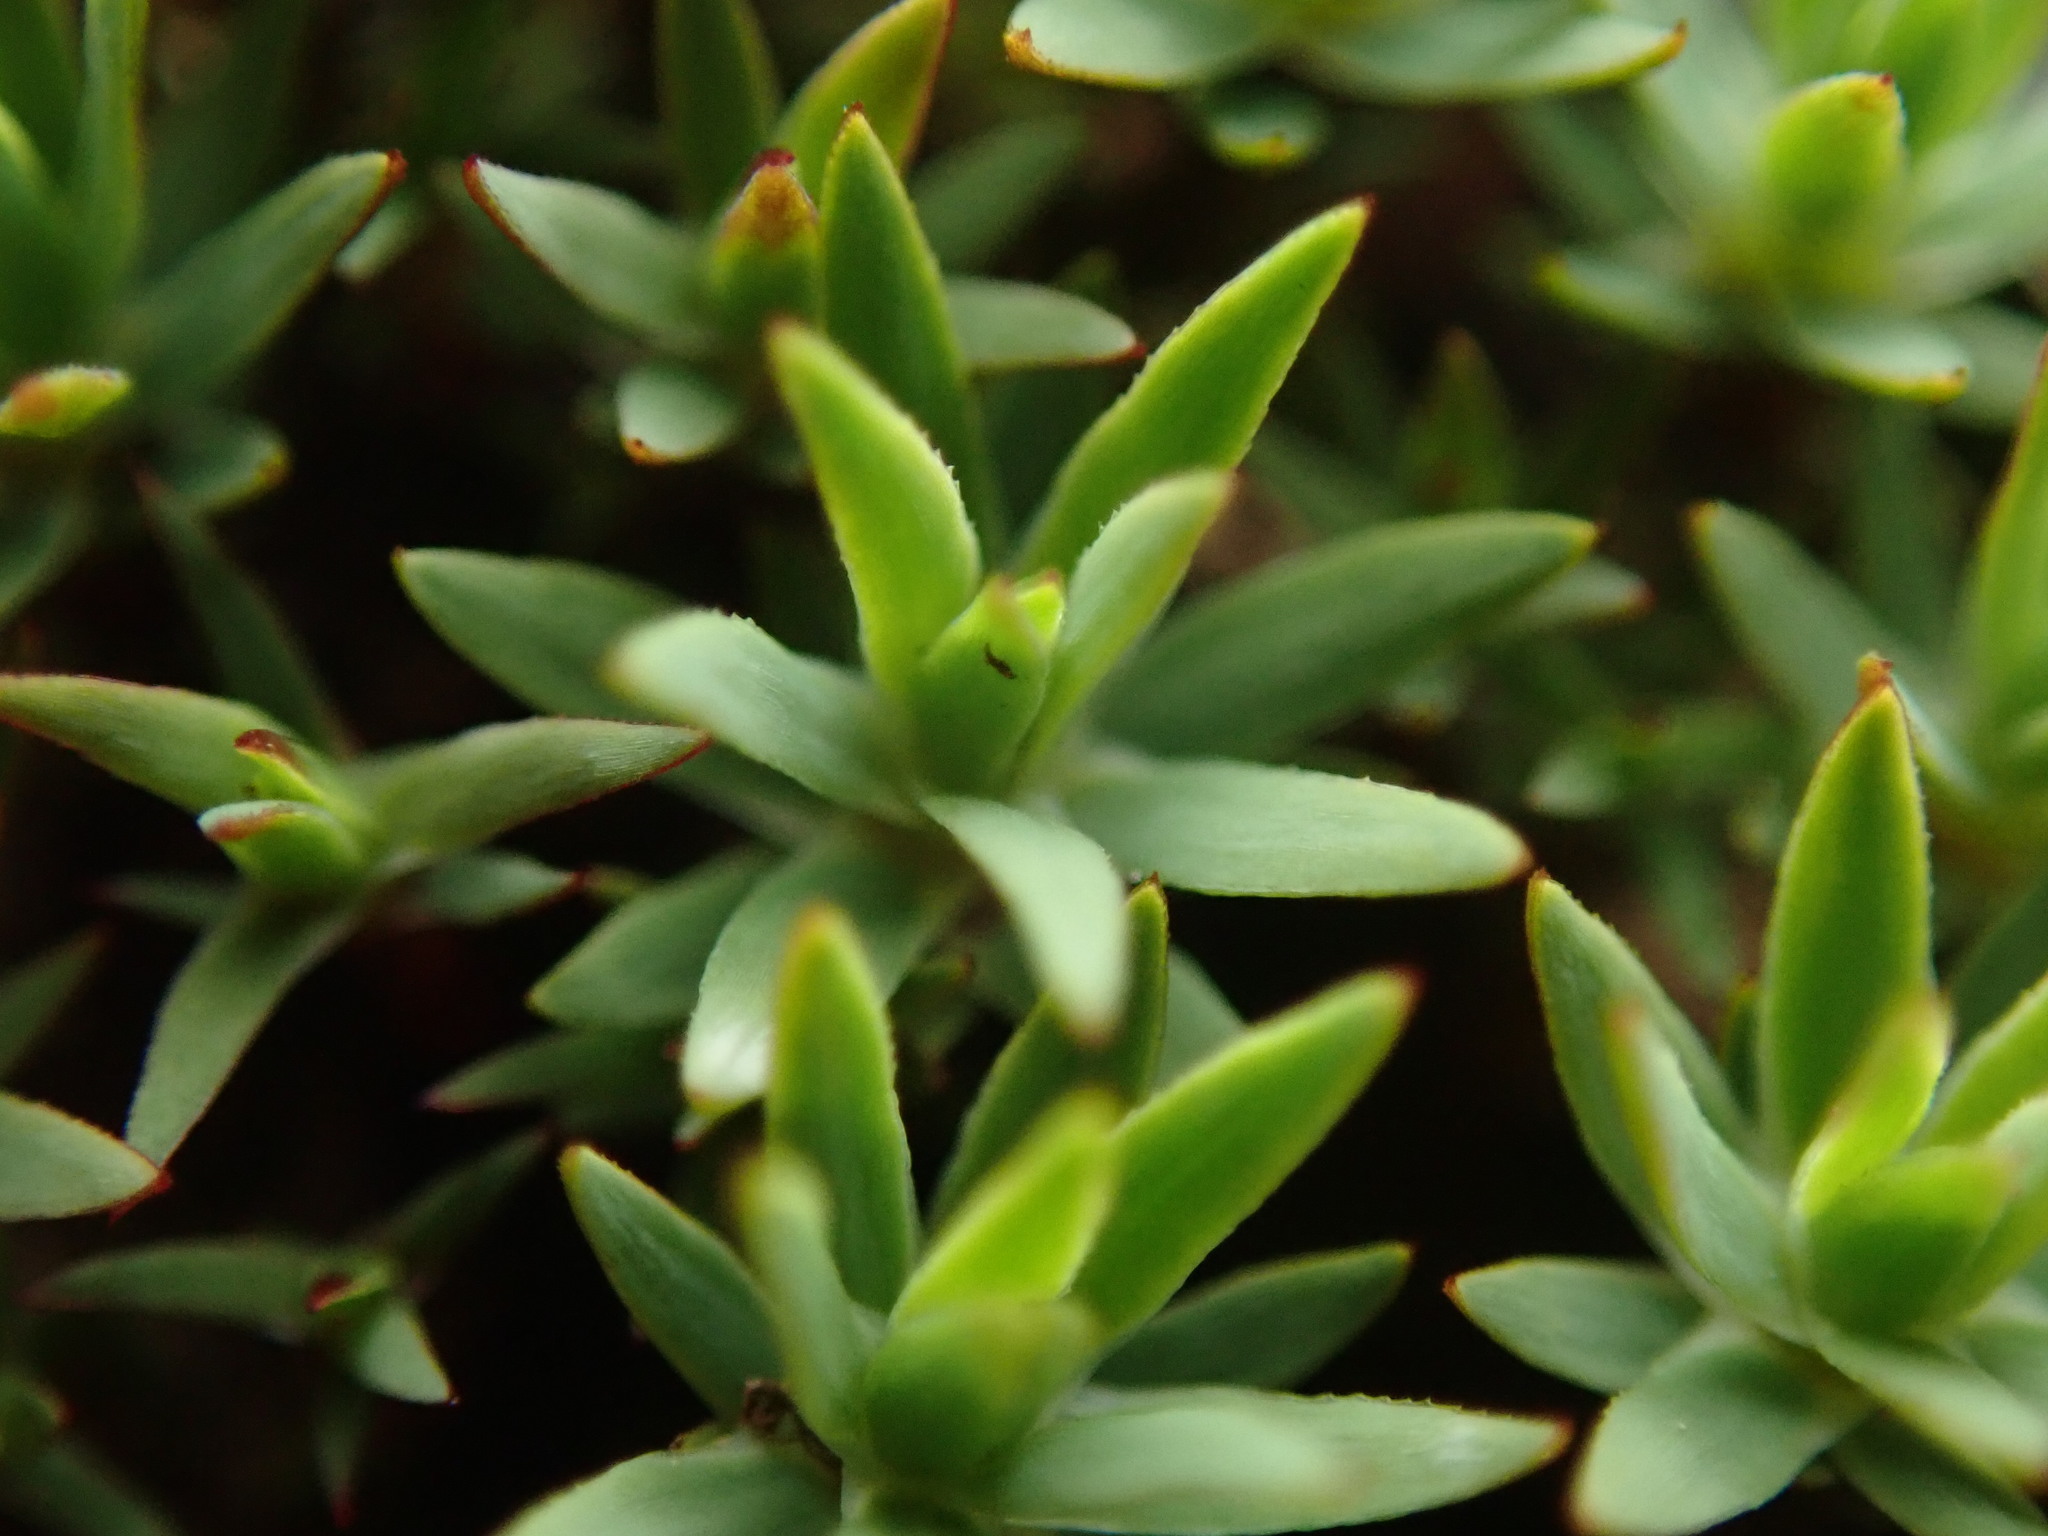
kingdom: Plantae
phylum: Bryophyta
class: Polytrichopsida
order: Polytrichales
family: Polytrichaceae
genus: Pogonatum
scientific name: Pogonatum urnigerum
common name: Urn hair moss
